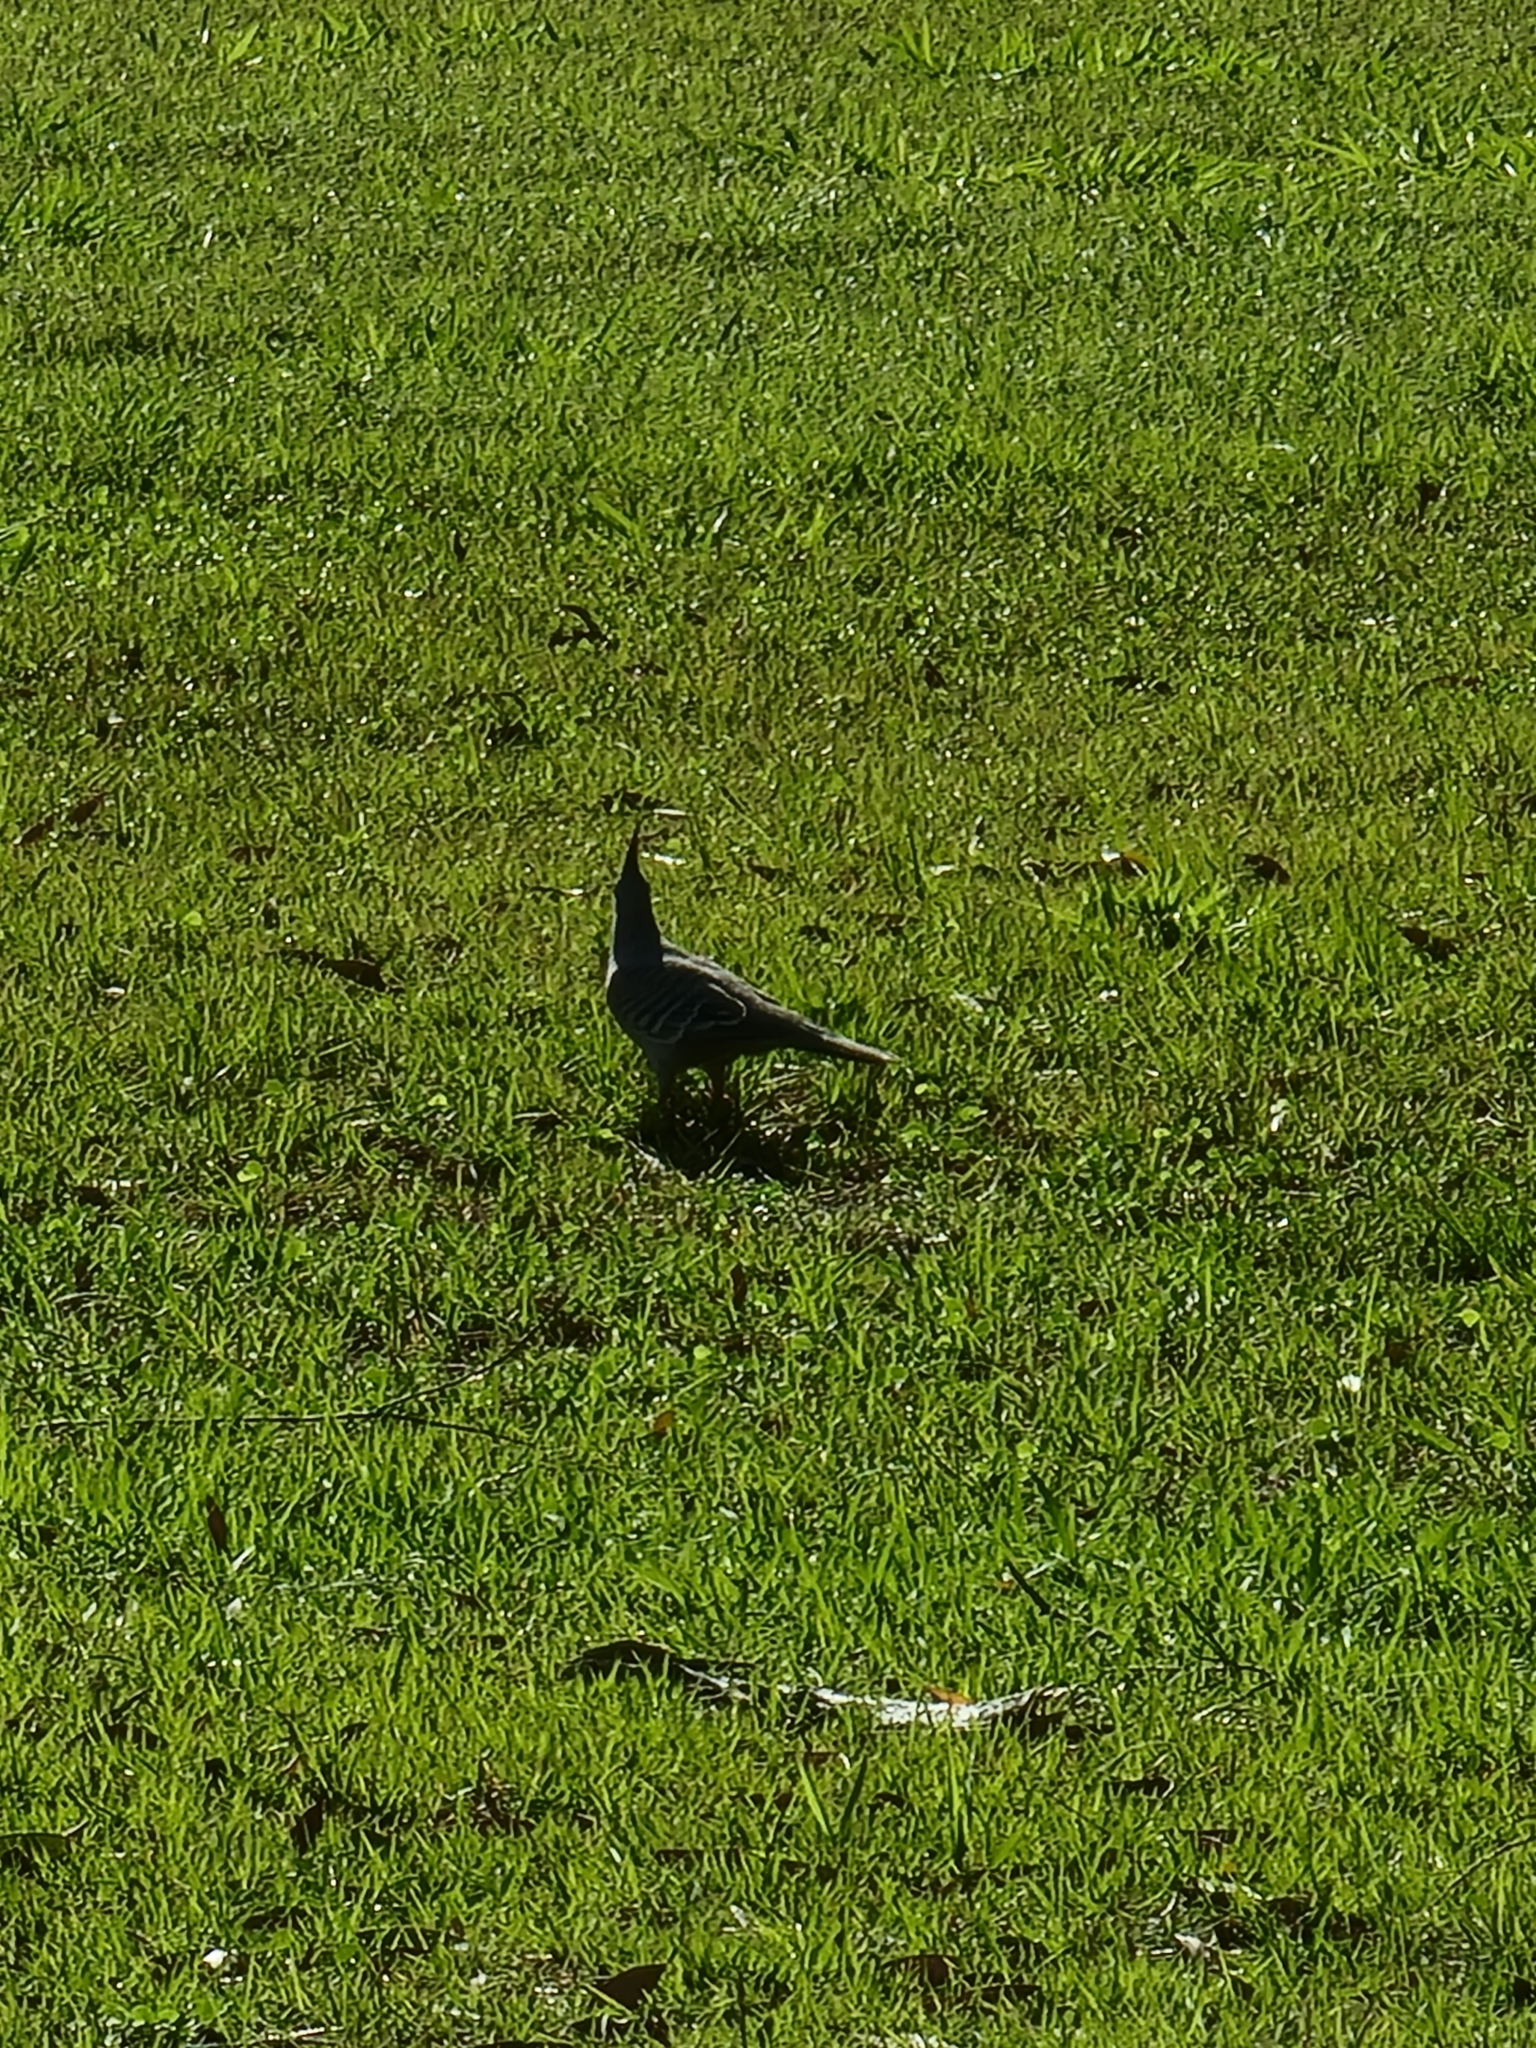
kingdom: Animalia
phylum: Chordata
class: Aves
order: Columbiformes
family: Columbidae
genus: Ocyphaps
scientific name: Ocyphaps lophotes
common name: Crested pigeon
